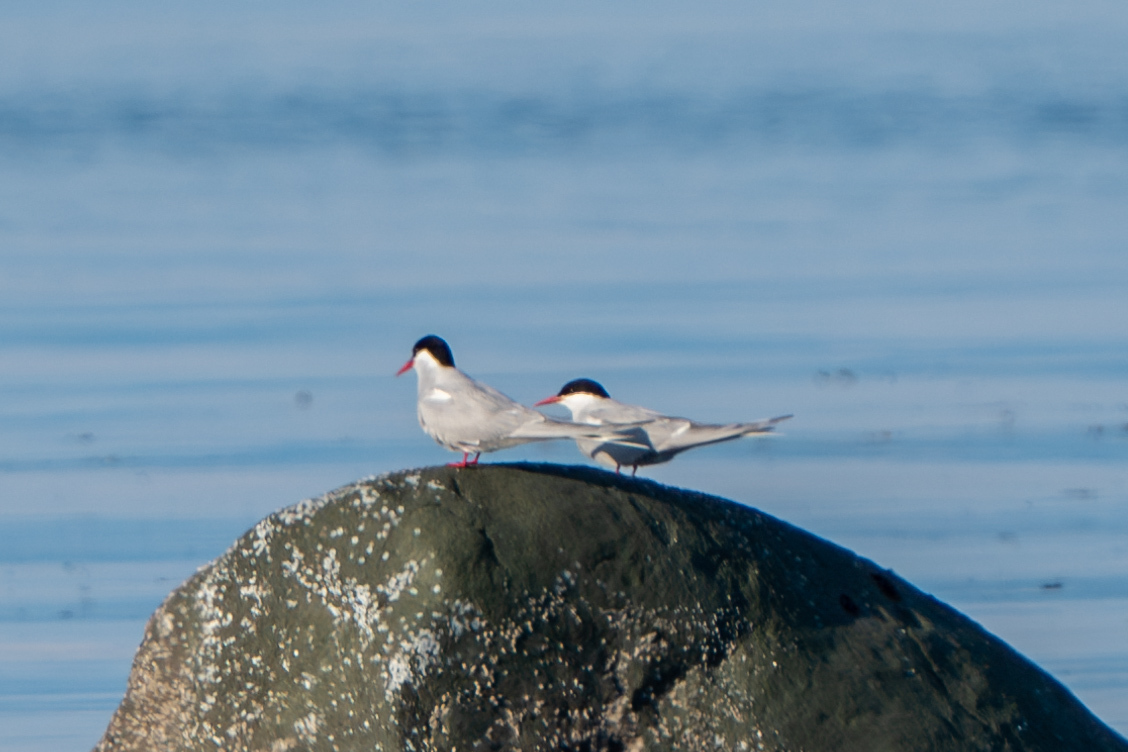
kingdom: Animalia
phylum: Chordata
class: Aves
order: Charadriiformes
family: Laridae
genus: Sterna
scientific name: Sterna paradisaea
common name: Arctic tern
